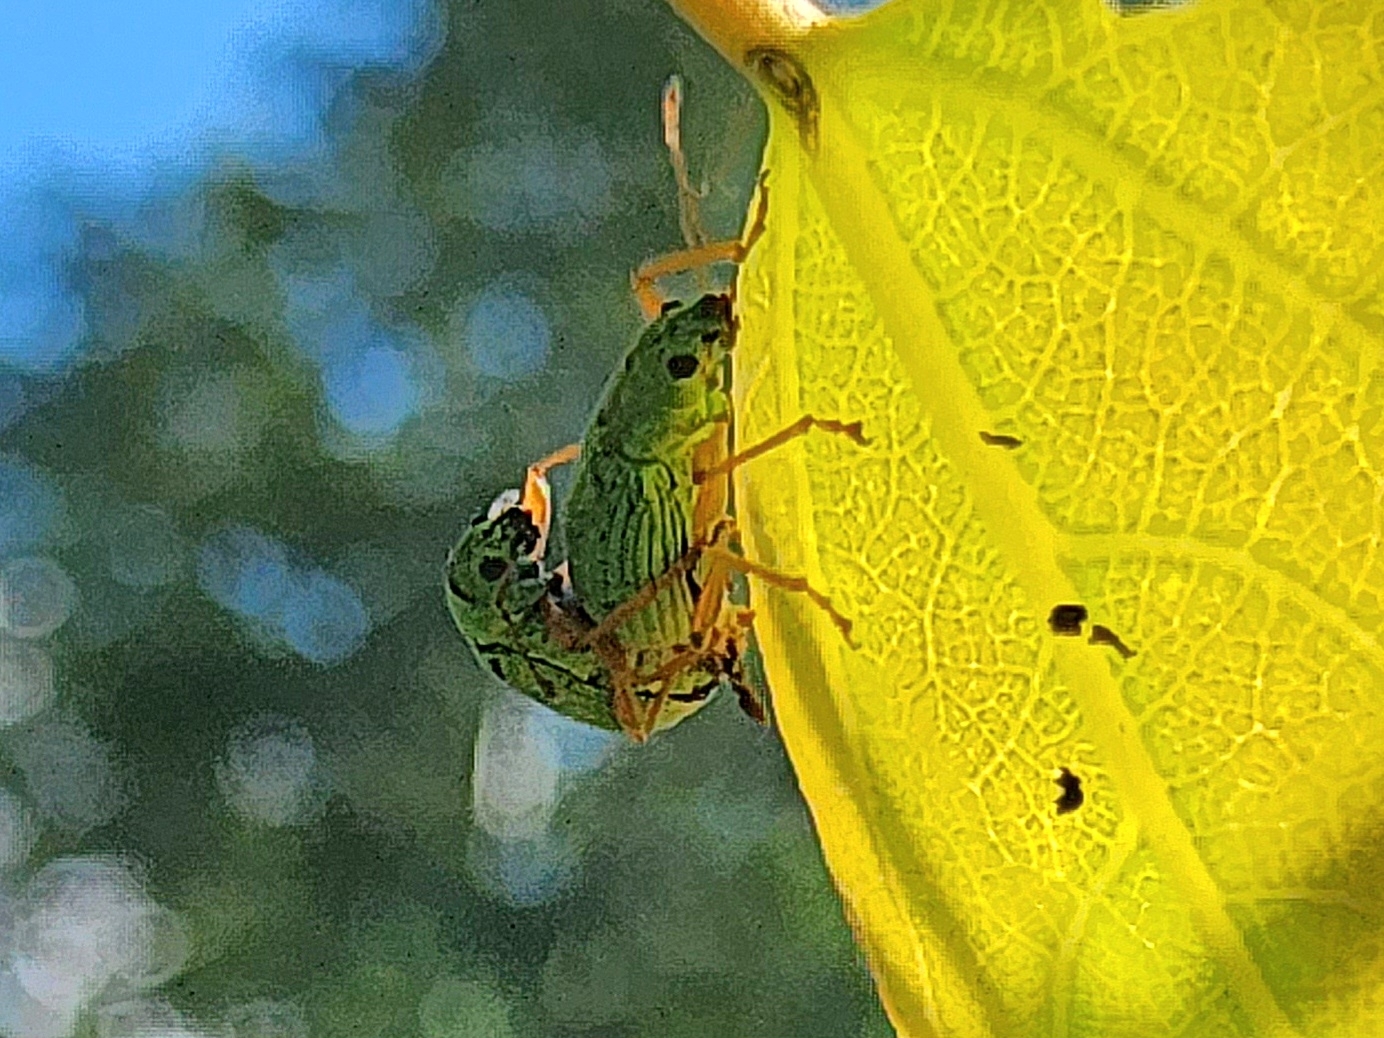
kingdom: Animalia
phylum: Arthropoda
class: Insecta
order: Coleoptera
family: Curculionidae
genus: Polydrusus
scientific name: Polydrusus impressifrons
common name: Weevil
